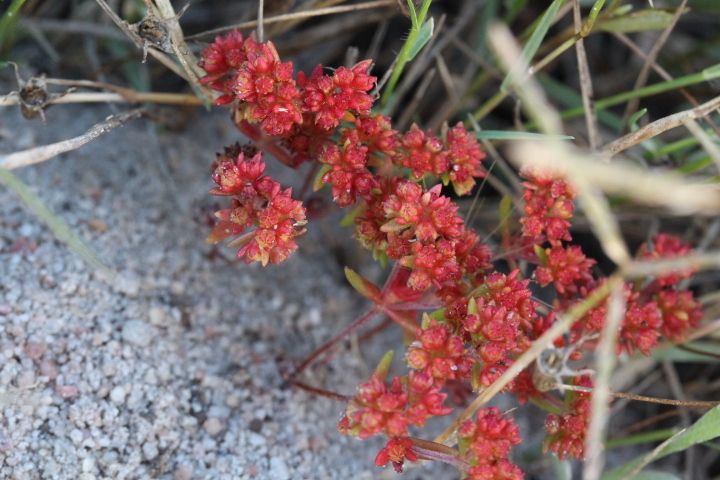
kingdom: Plantae
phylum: Tracheophyta
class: Magnoliopsida
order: Saxifragales
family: Crassulaceae
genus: Crassula
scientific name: Crassula glomerata
